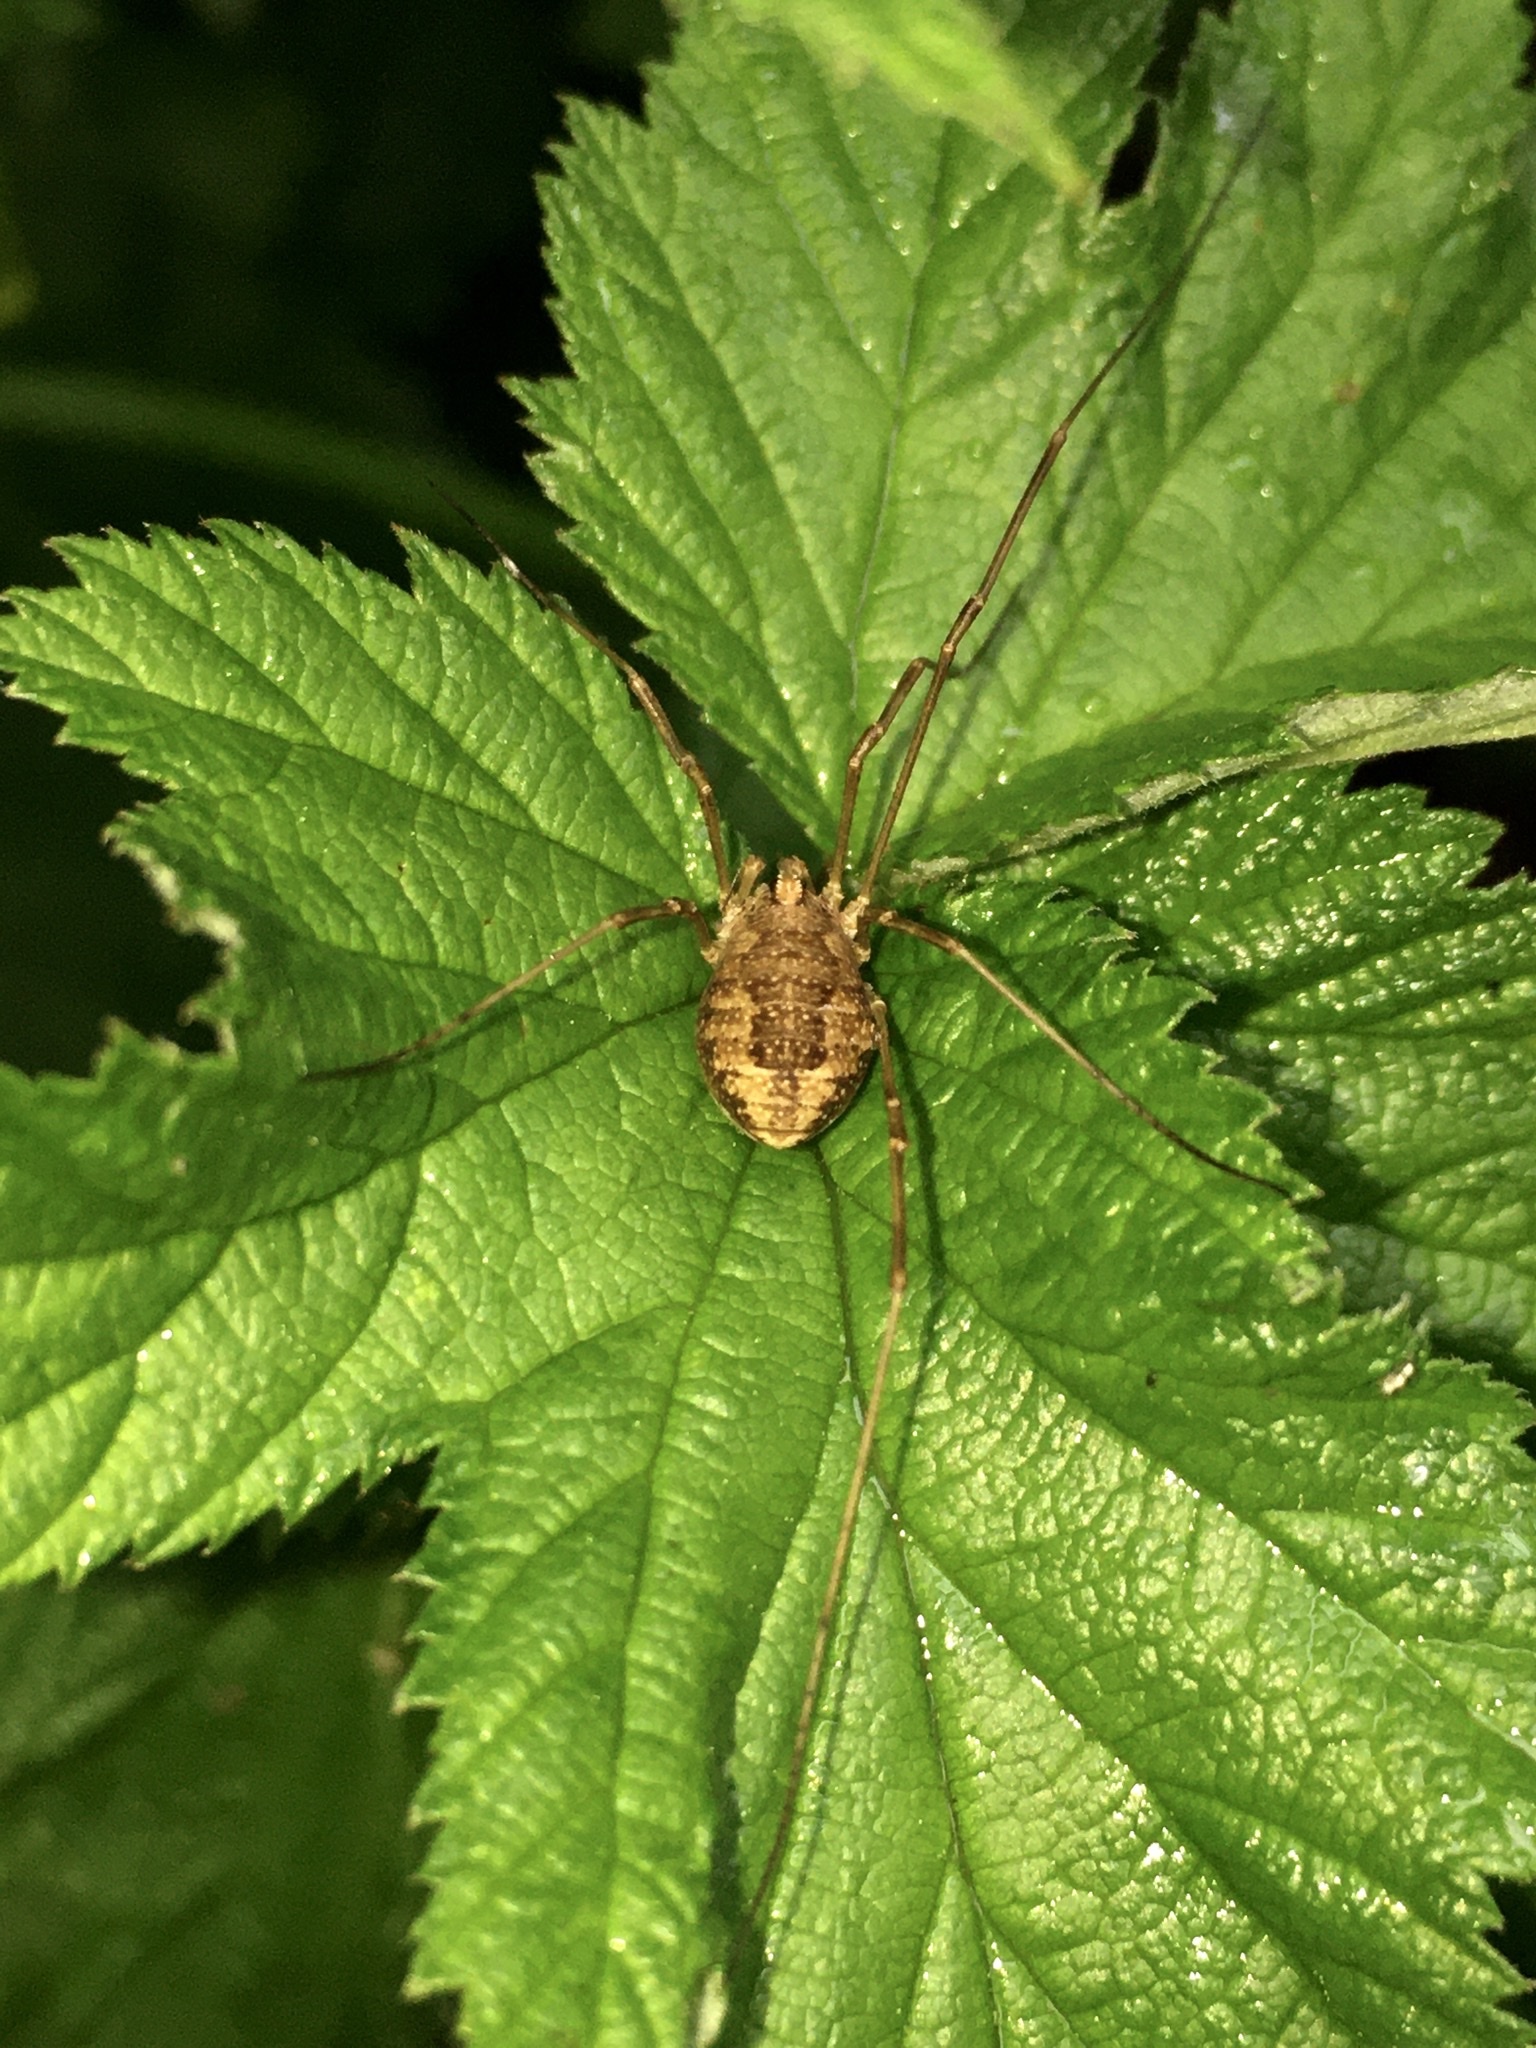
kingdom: Animalia
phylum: Arthropoda
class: Arachnida
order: Opiliones
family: Phalangiidae
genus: Rilaena
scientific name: Rilaena triangularis
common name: Spring harvestman
